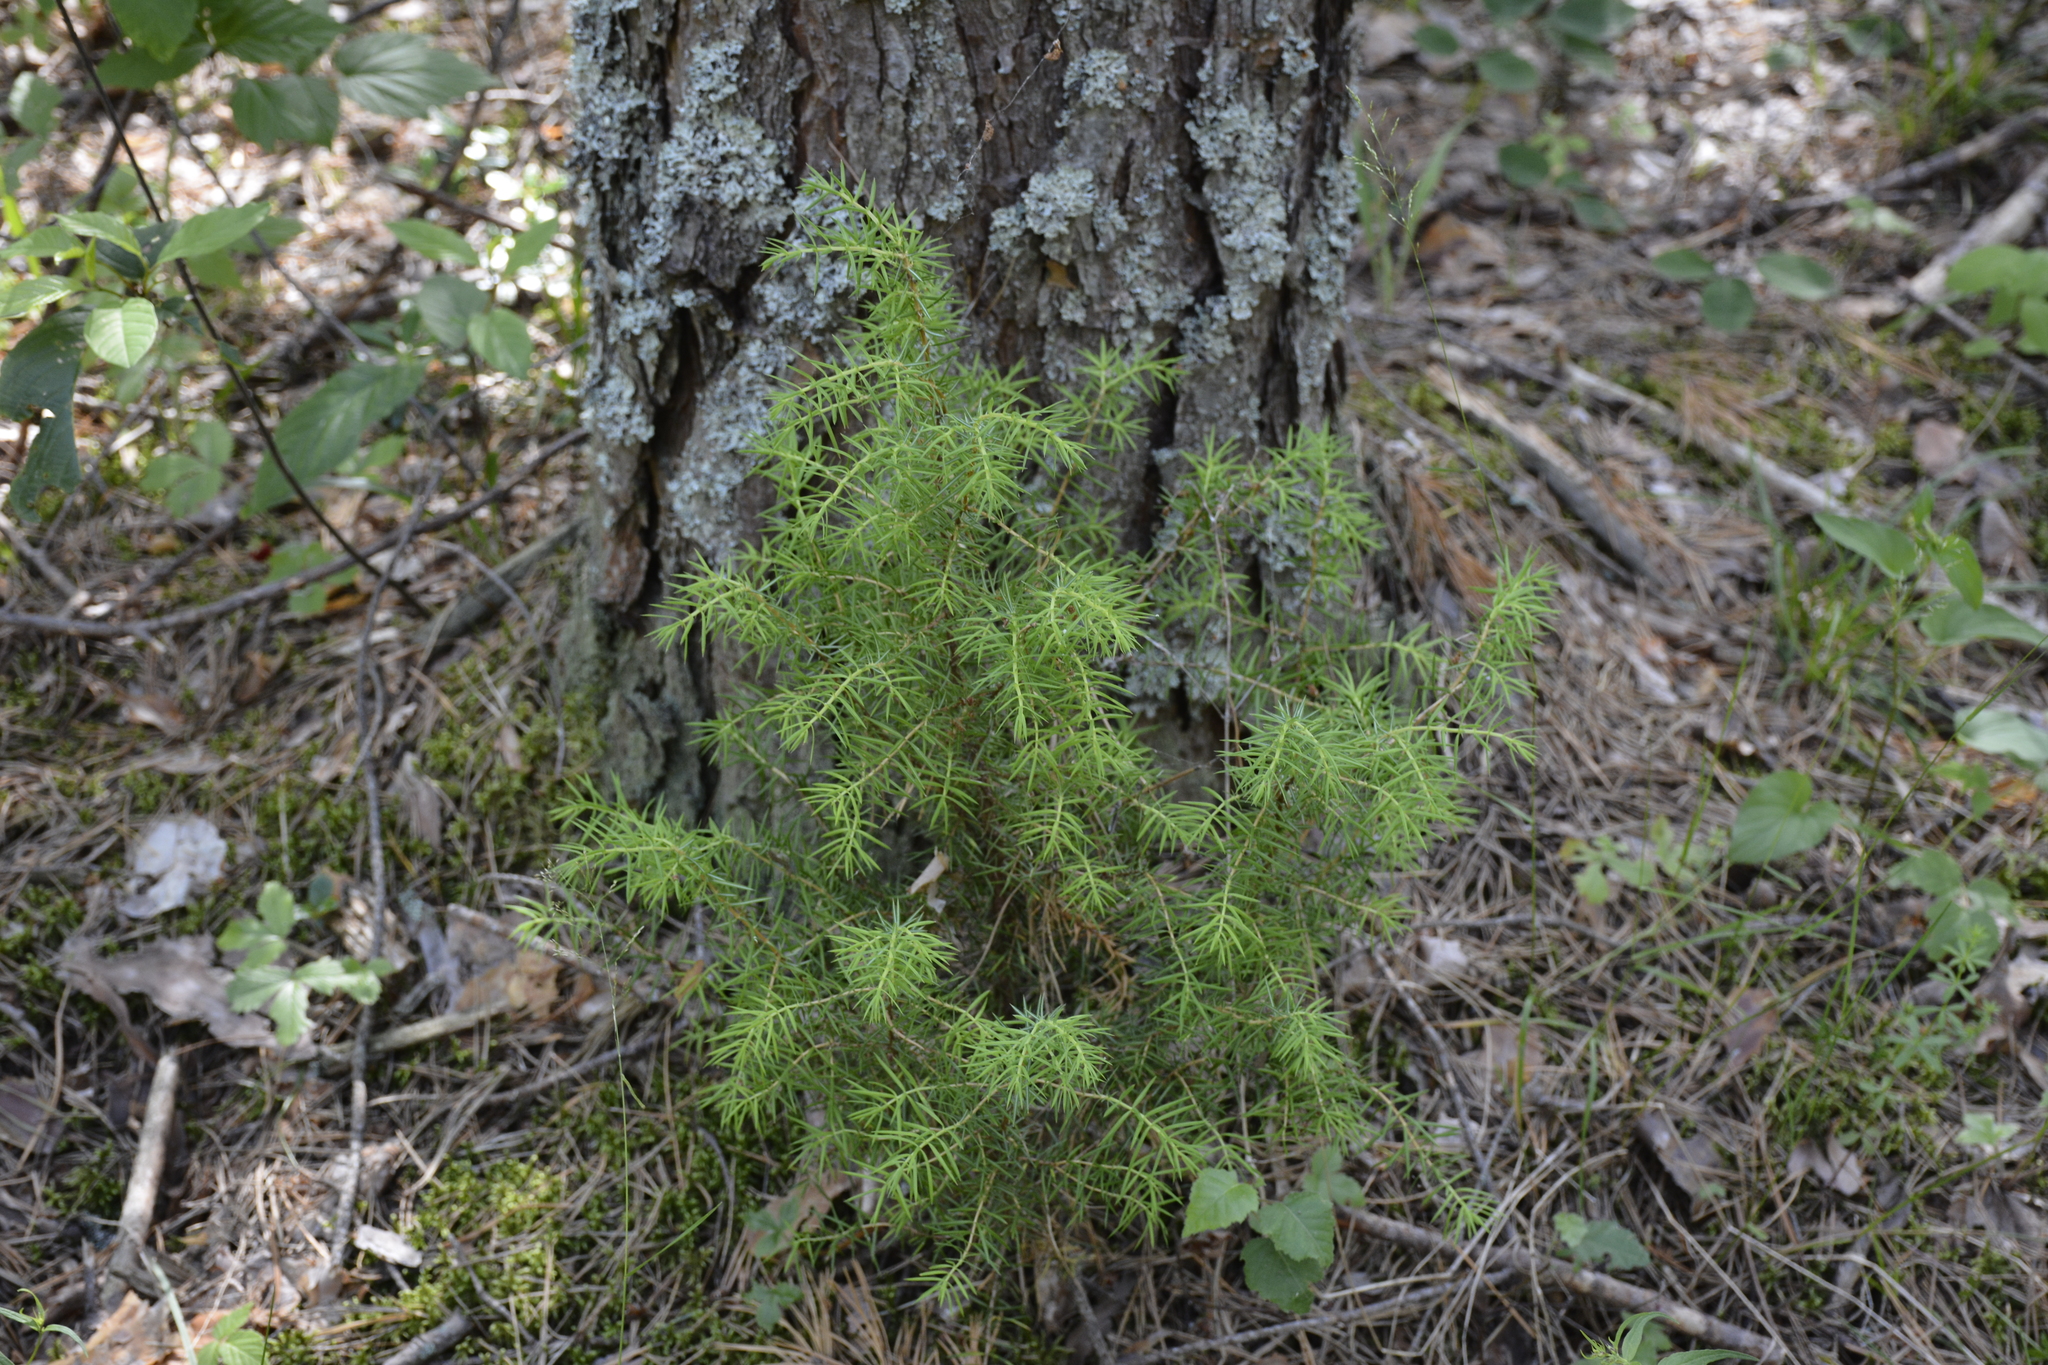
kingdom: Plantae
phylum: Tracheophyta
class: Pinopsida
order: Pinales
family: Cupressaceae
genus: Juniperus
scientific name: Juniperus communis
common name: Common juniper
